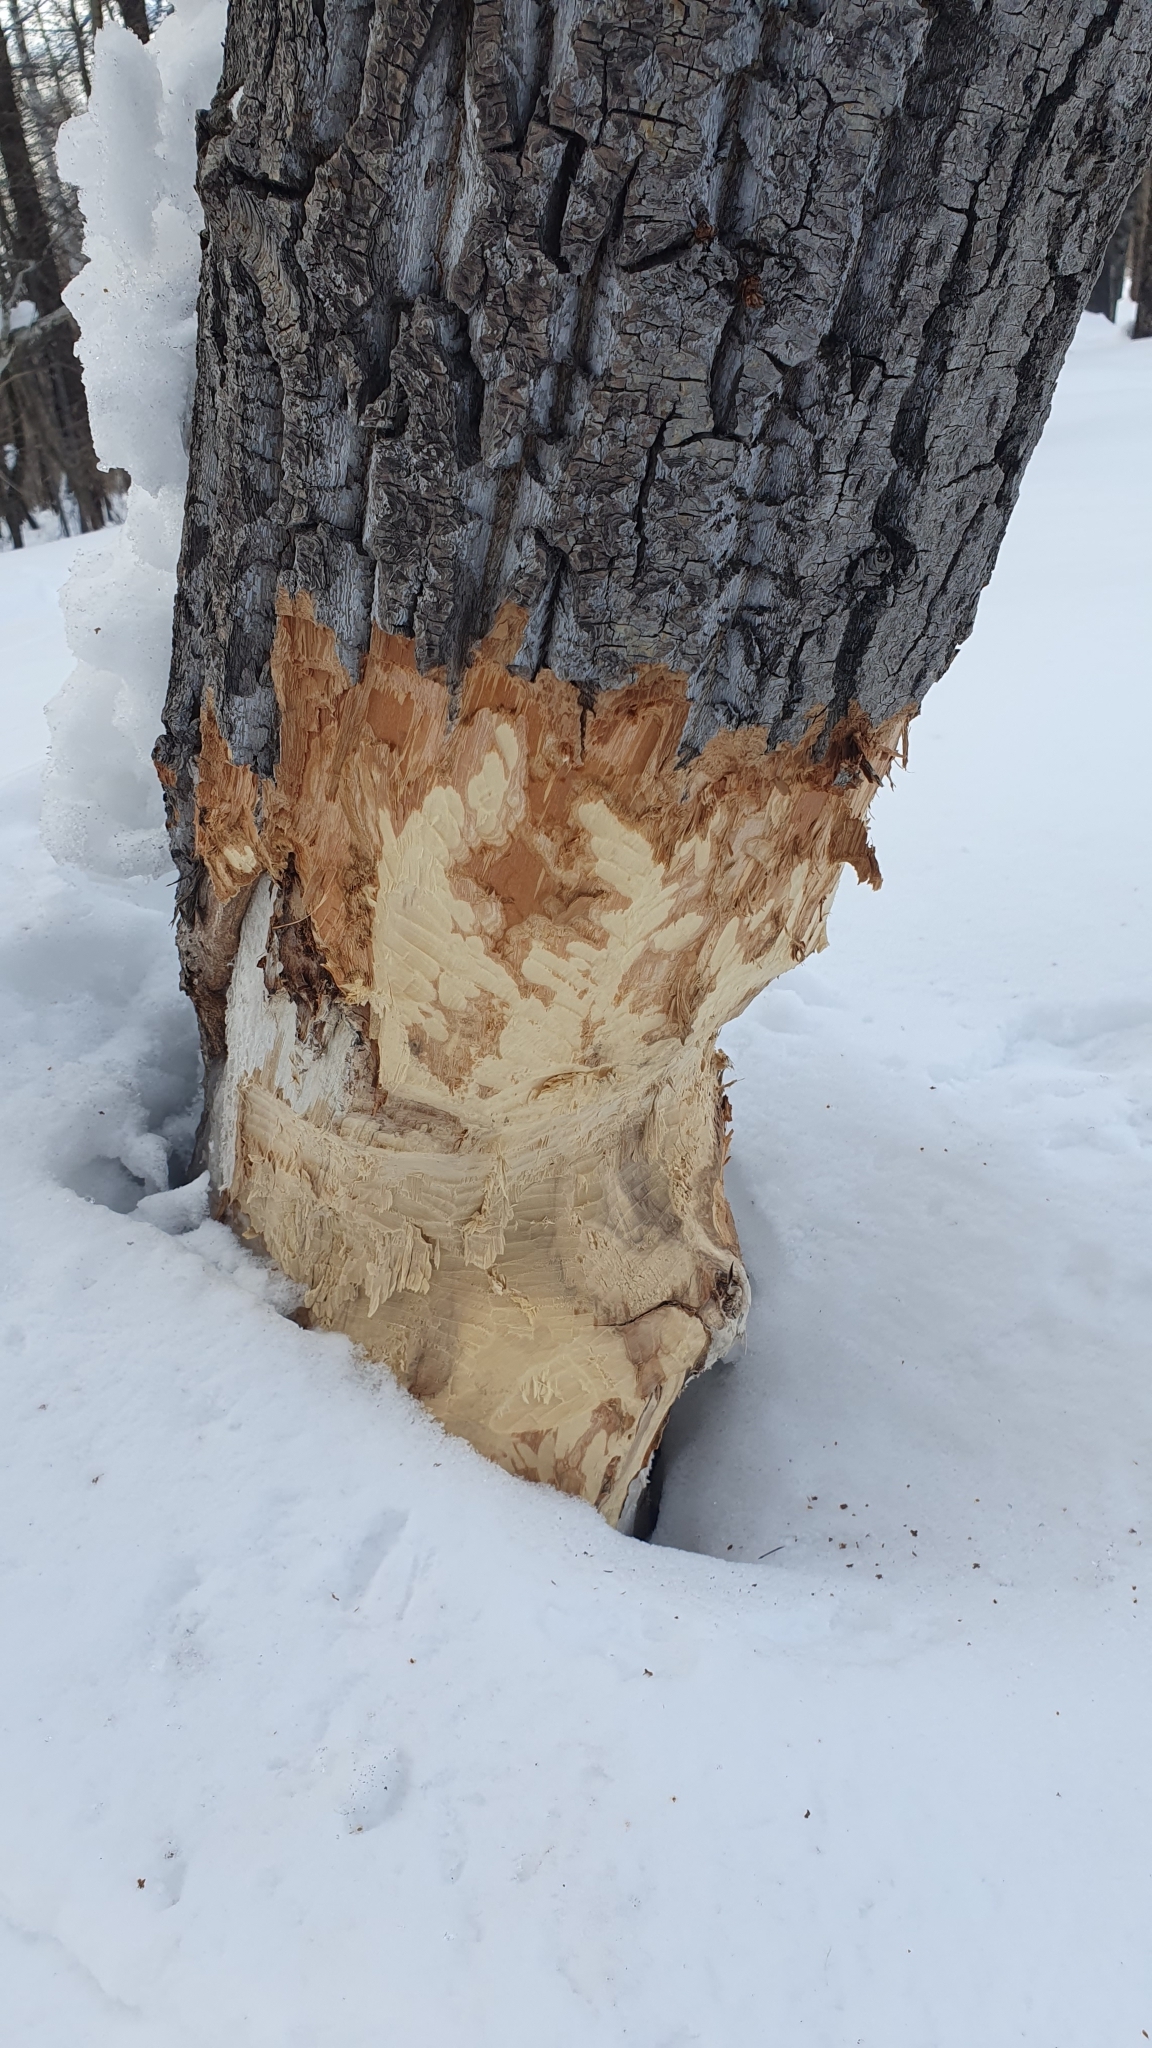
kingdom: Animalia
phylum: Chordata
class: Mammalia
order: Rodentia
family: Castoridae
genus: Castor
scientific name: Castor fiber
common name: Eurasian beaver
